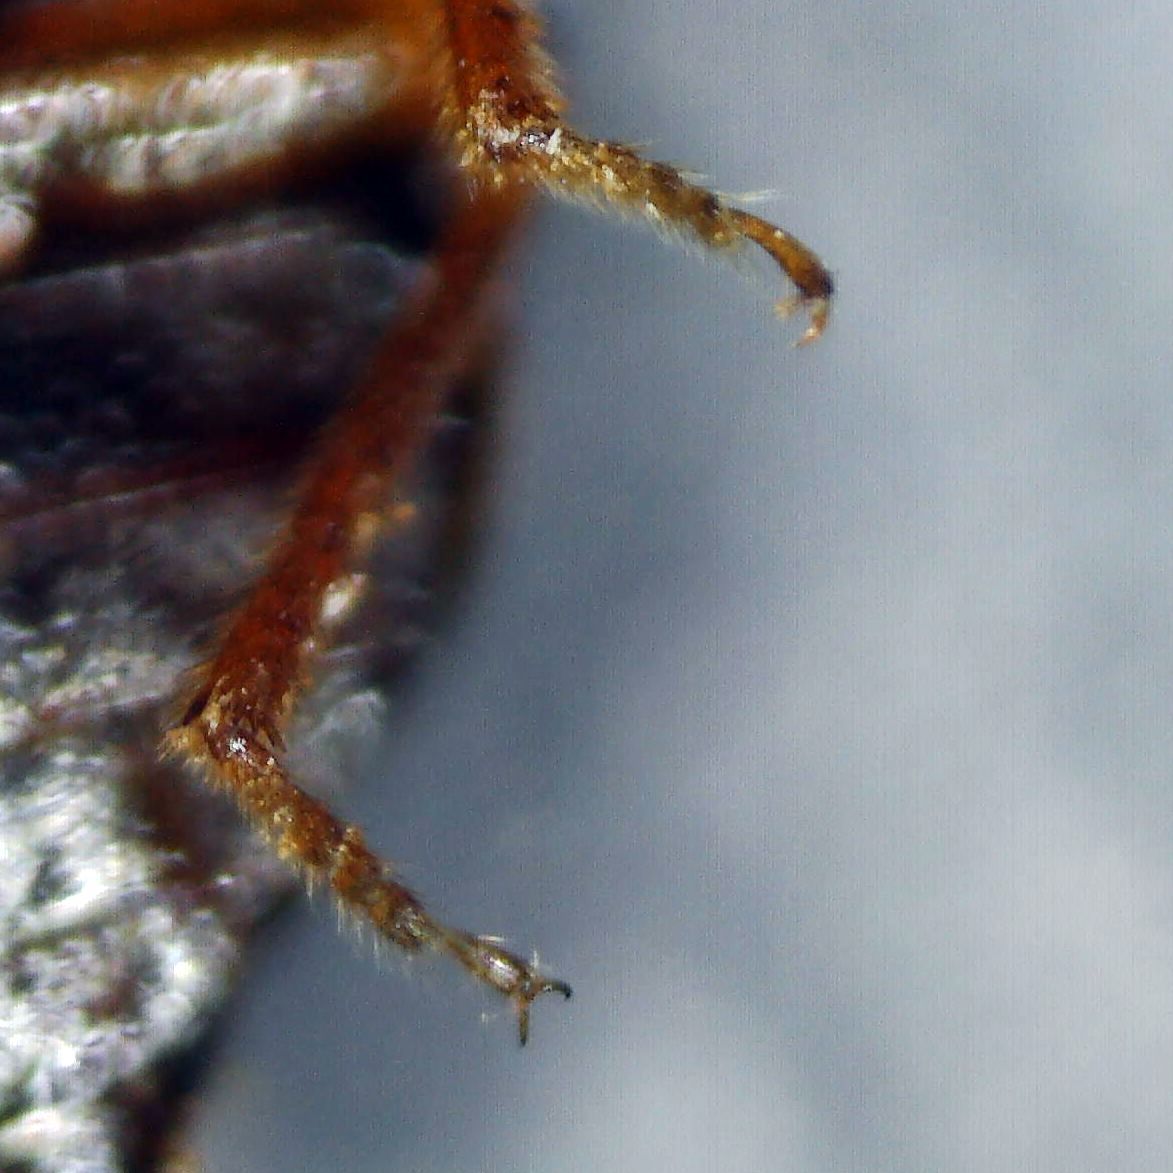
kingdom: Animalia
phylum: Arthropoda
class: Insecta
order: Coleoptera
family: Staphylinidae
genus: Anthobium
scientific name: Anthobium unicolor
